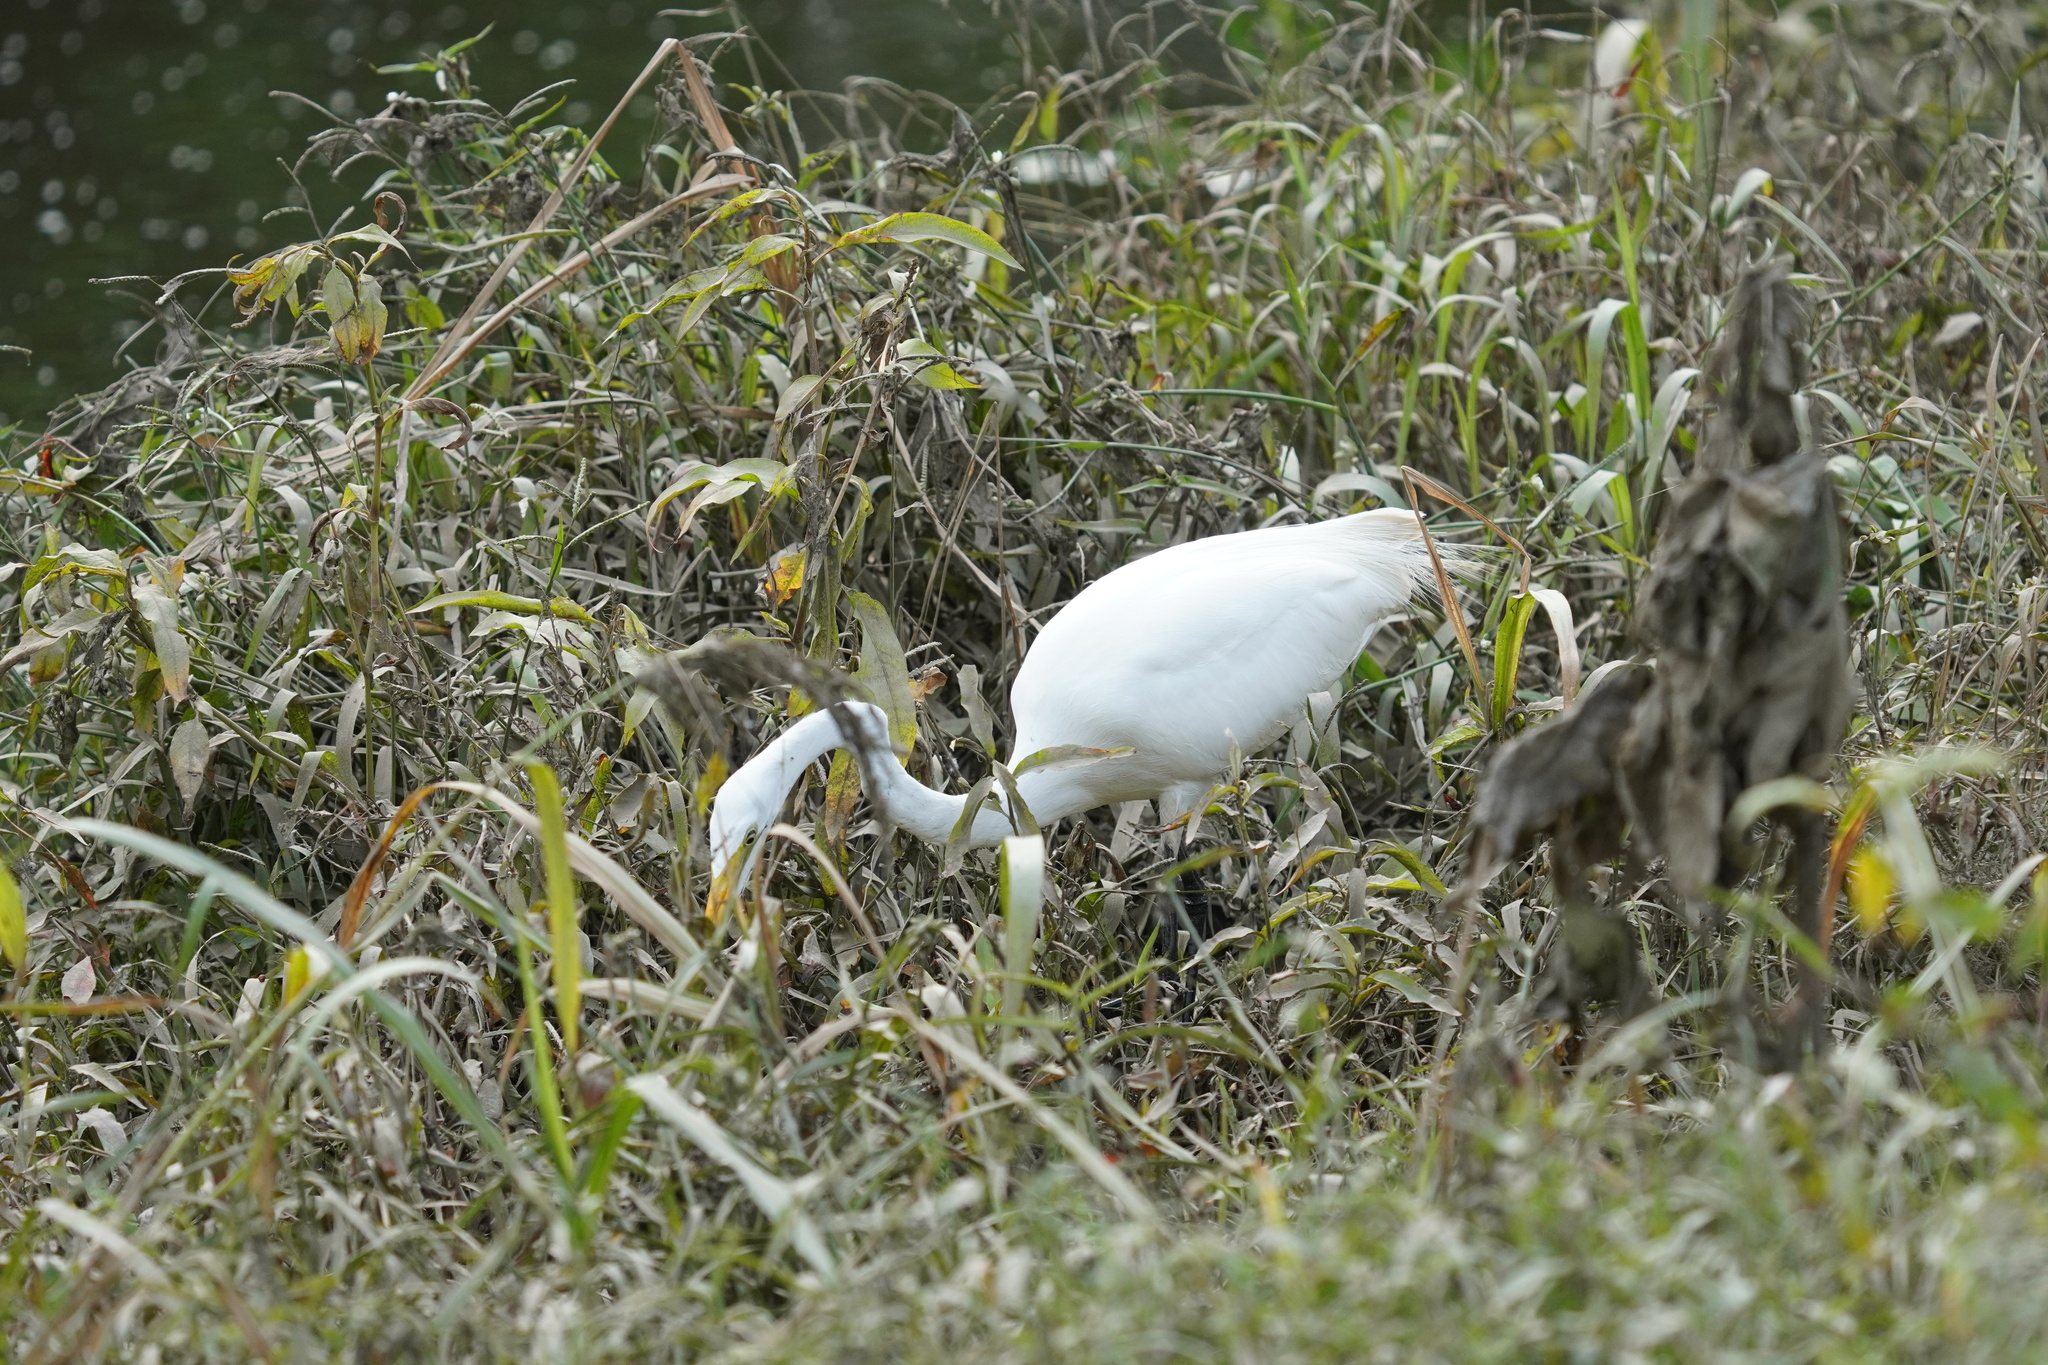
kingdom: Animalia
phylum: Chordata
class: Aves
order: Pelecaniformes
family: Ardeidae
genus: Ardea
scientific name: Ardea alba
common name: Great egret
